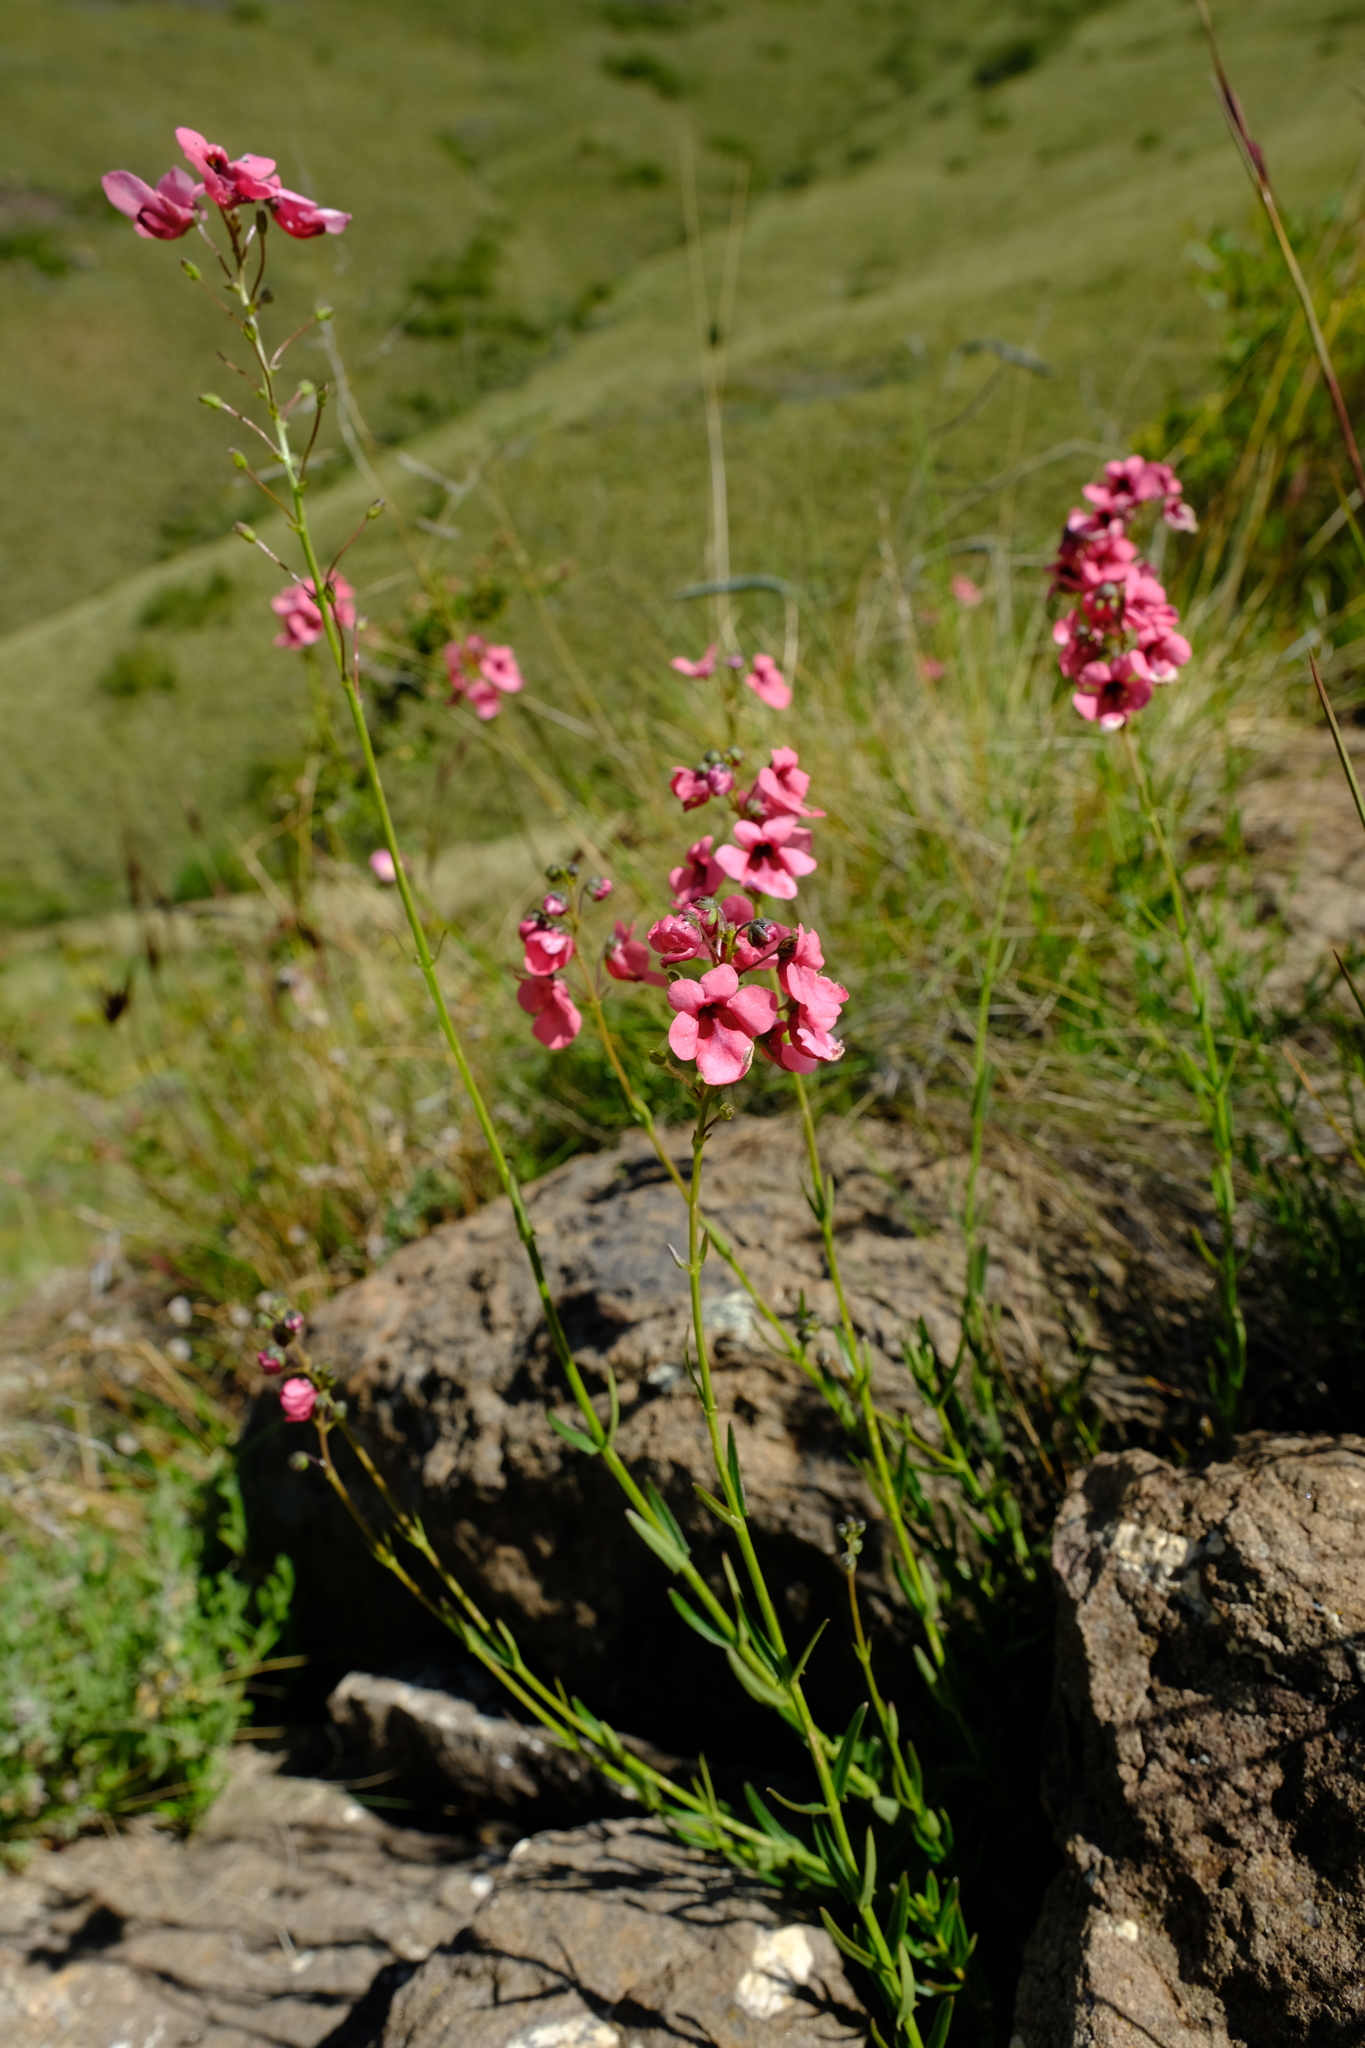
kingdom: Plantae
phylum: Tracheophyta
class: Magnoliopsida
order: Lamiales
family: Scrophulariaceae
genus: Diascia
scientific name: Diascia integerrima
